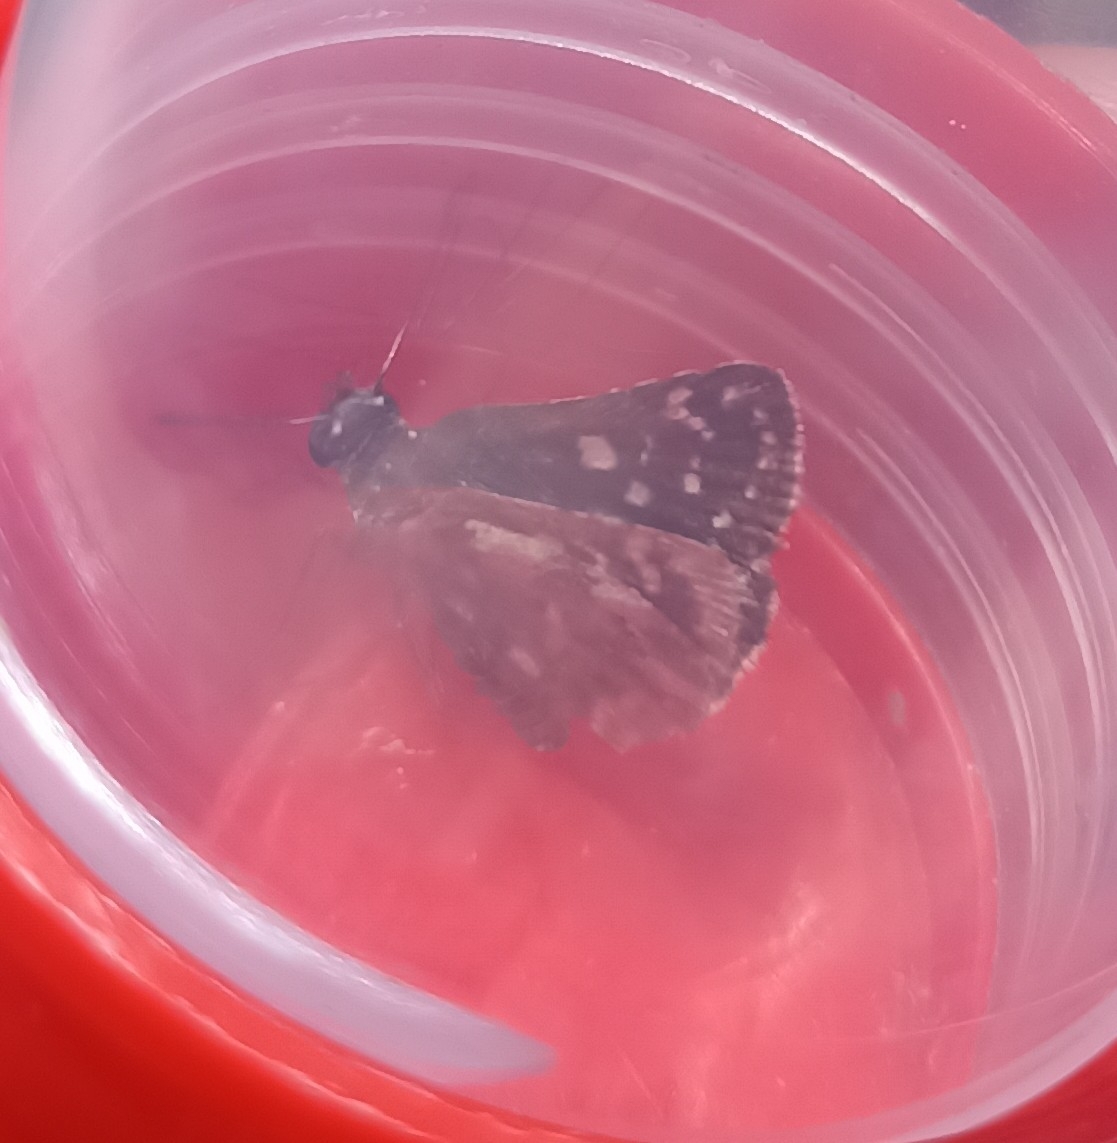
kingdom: Animalia
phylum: Arthropoda
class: Insecta
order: Lepidoptera
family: Hesperiidae
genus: Spialia
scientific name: Spialia sertorius
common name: Red underwing skipper
